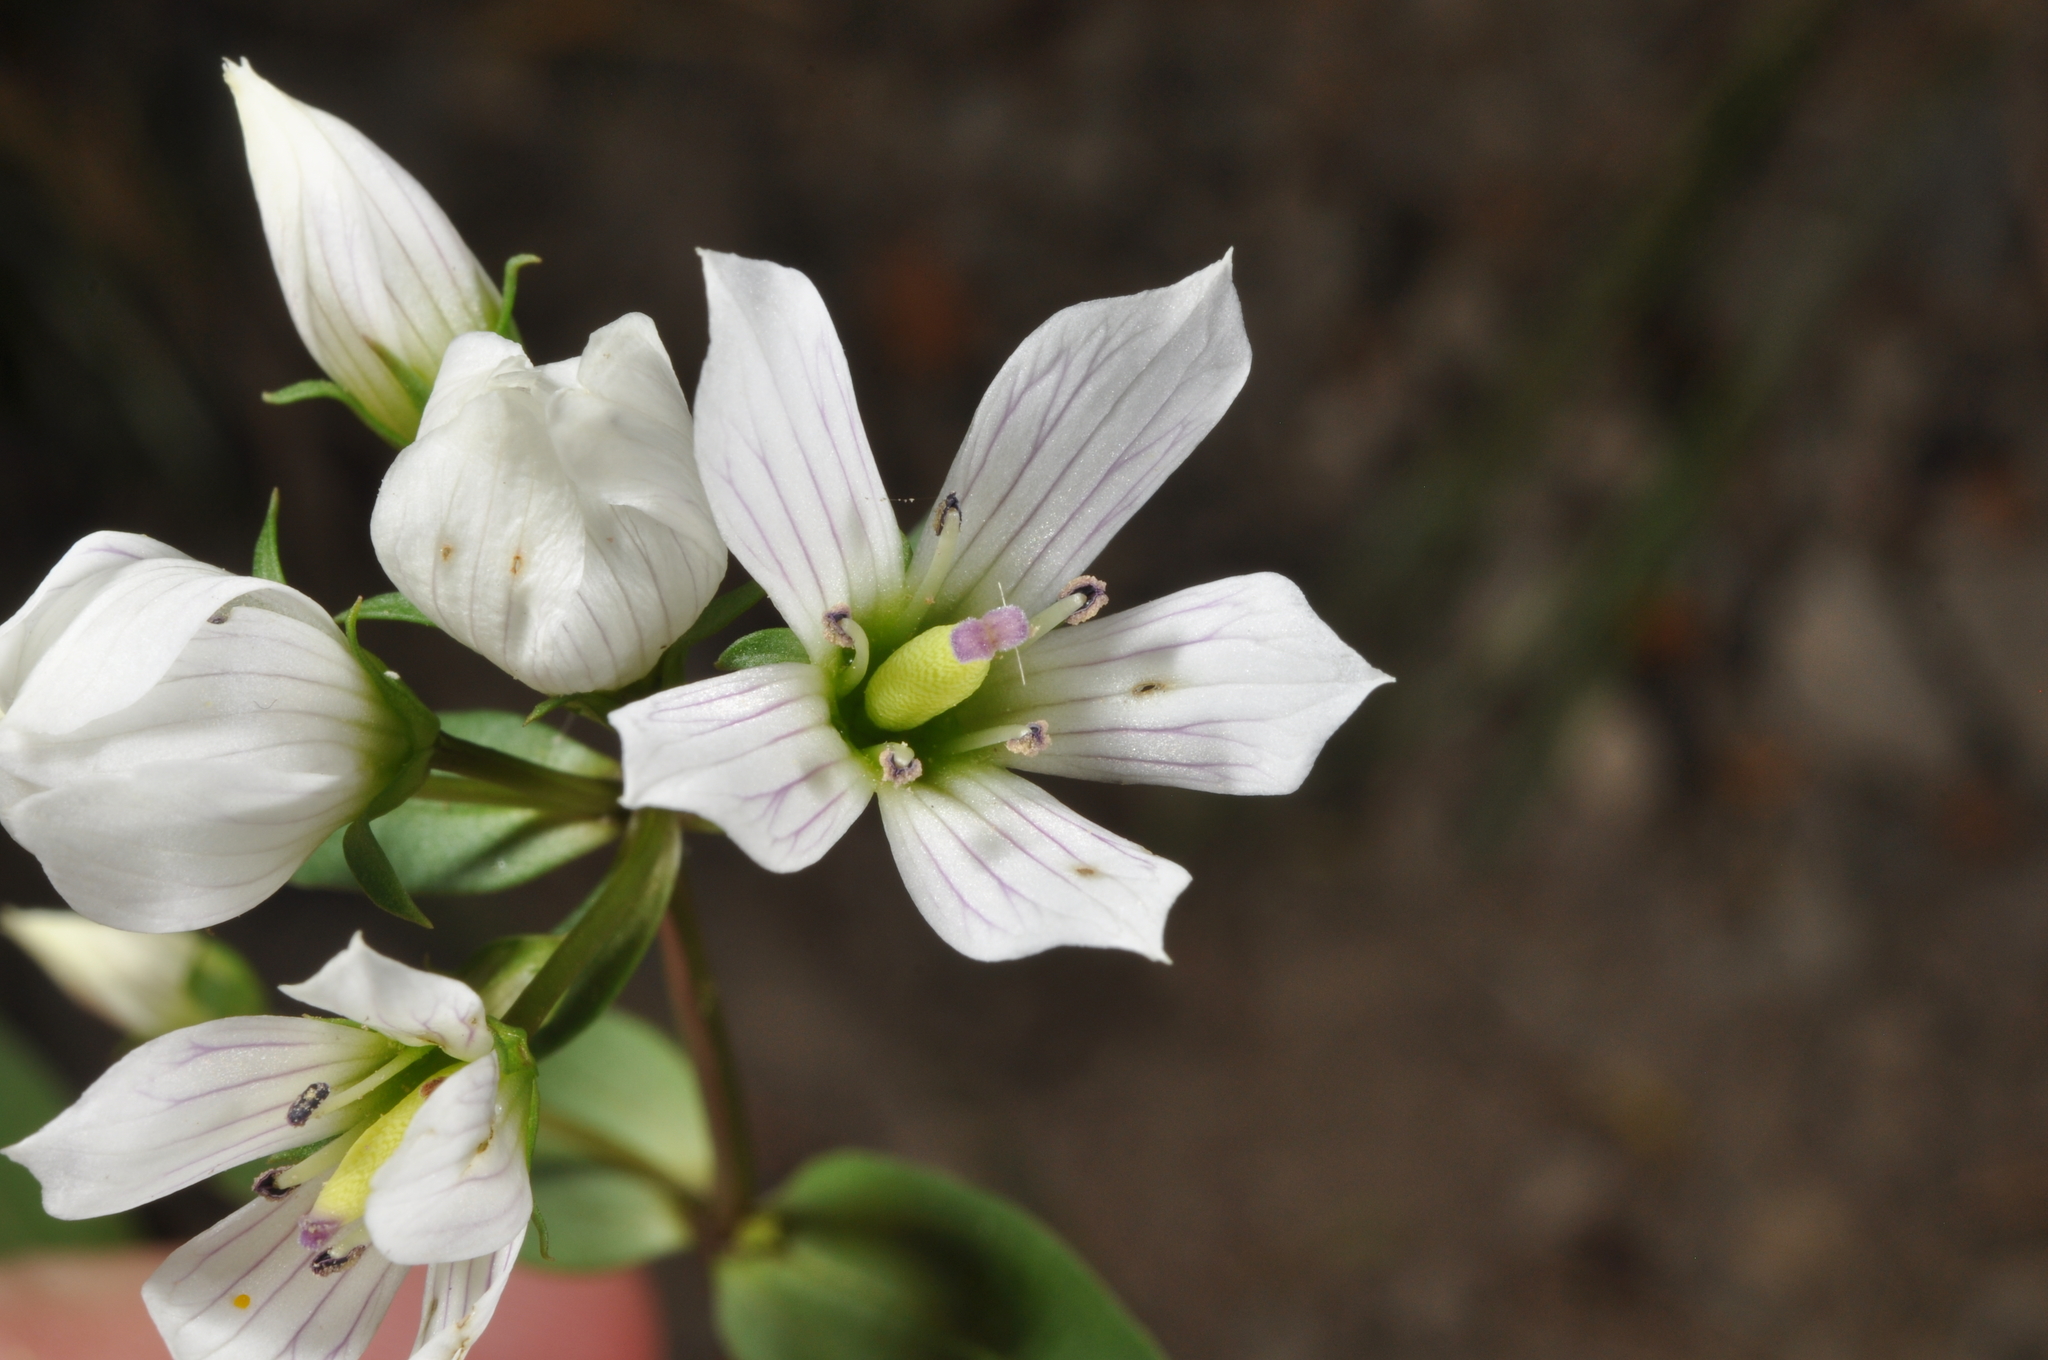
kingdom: Plantae
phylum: Tracheophyta
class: Magnoliopsida
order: Gentianales
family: Gentianaceae
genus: Gentianella
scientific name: Gentianella tenuifolia
